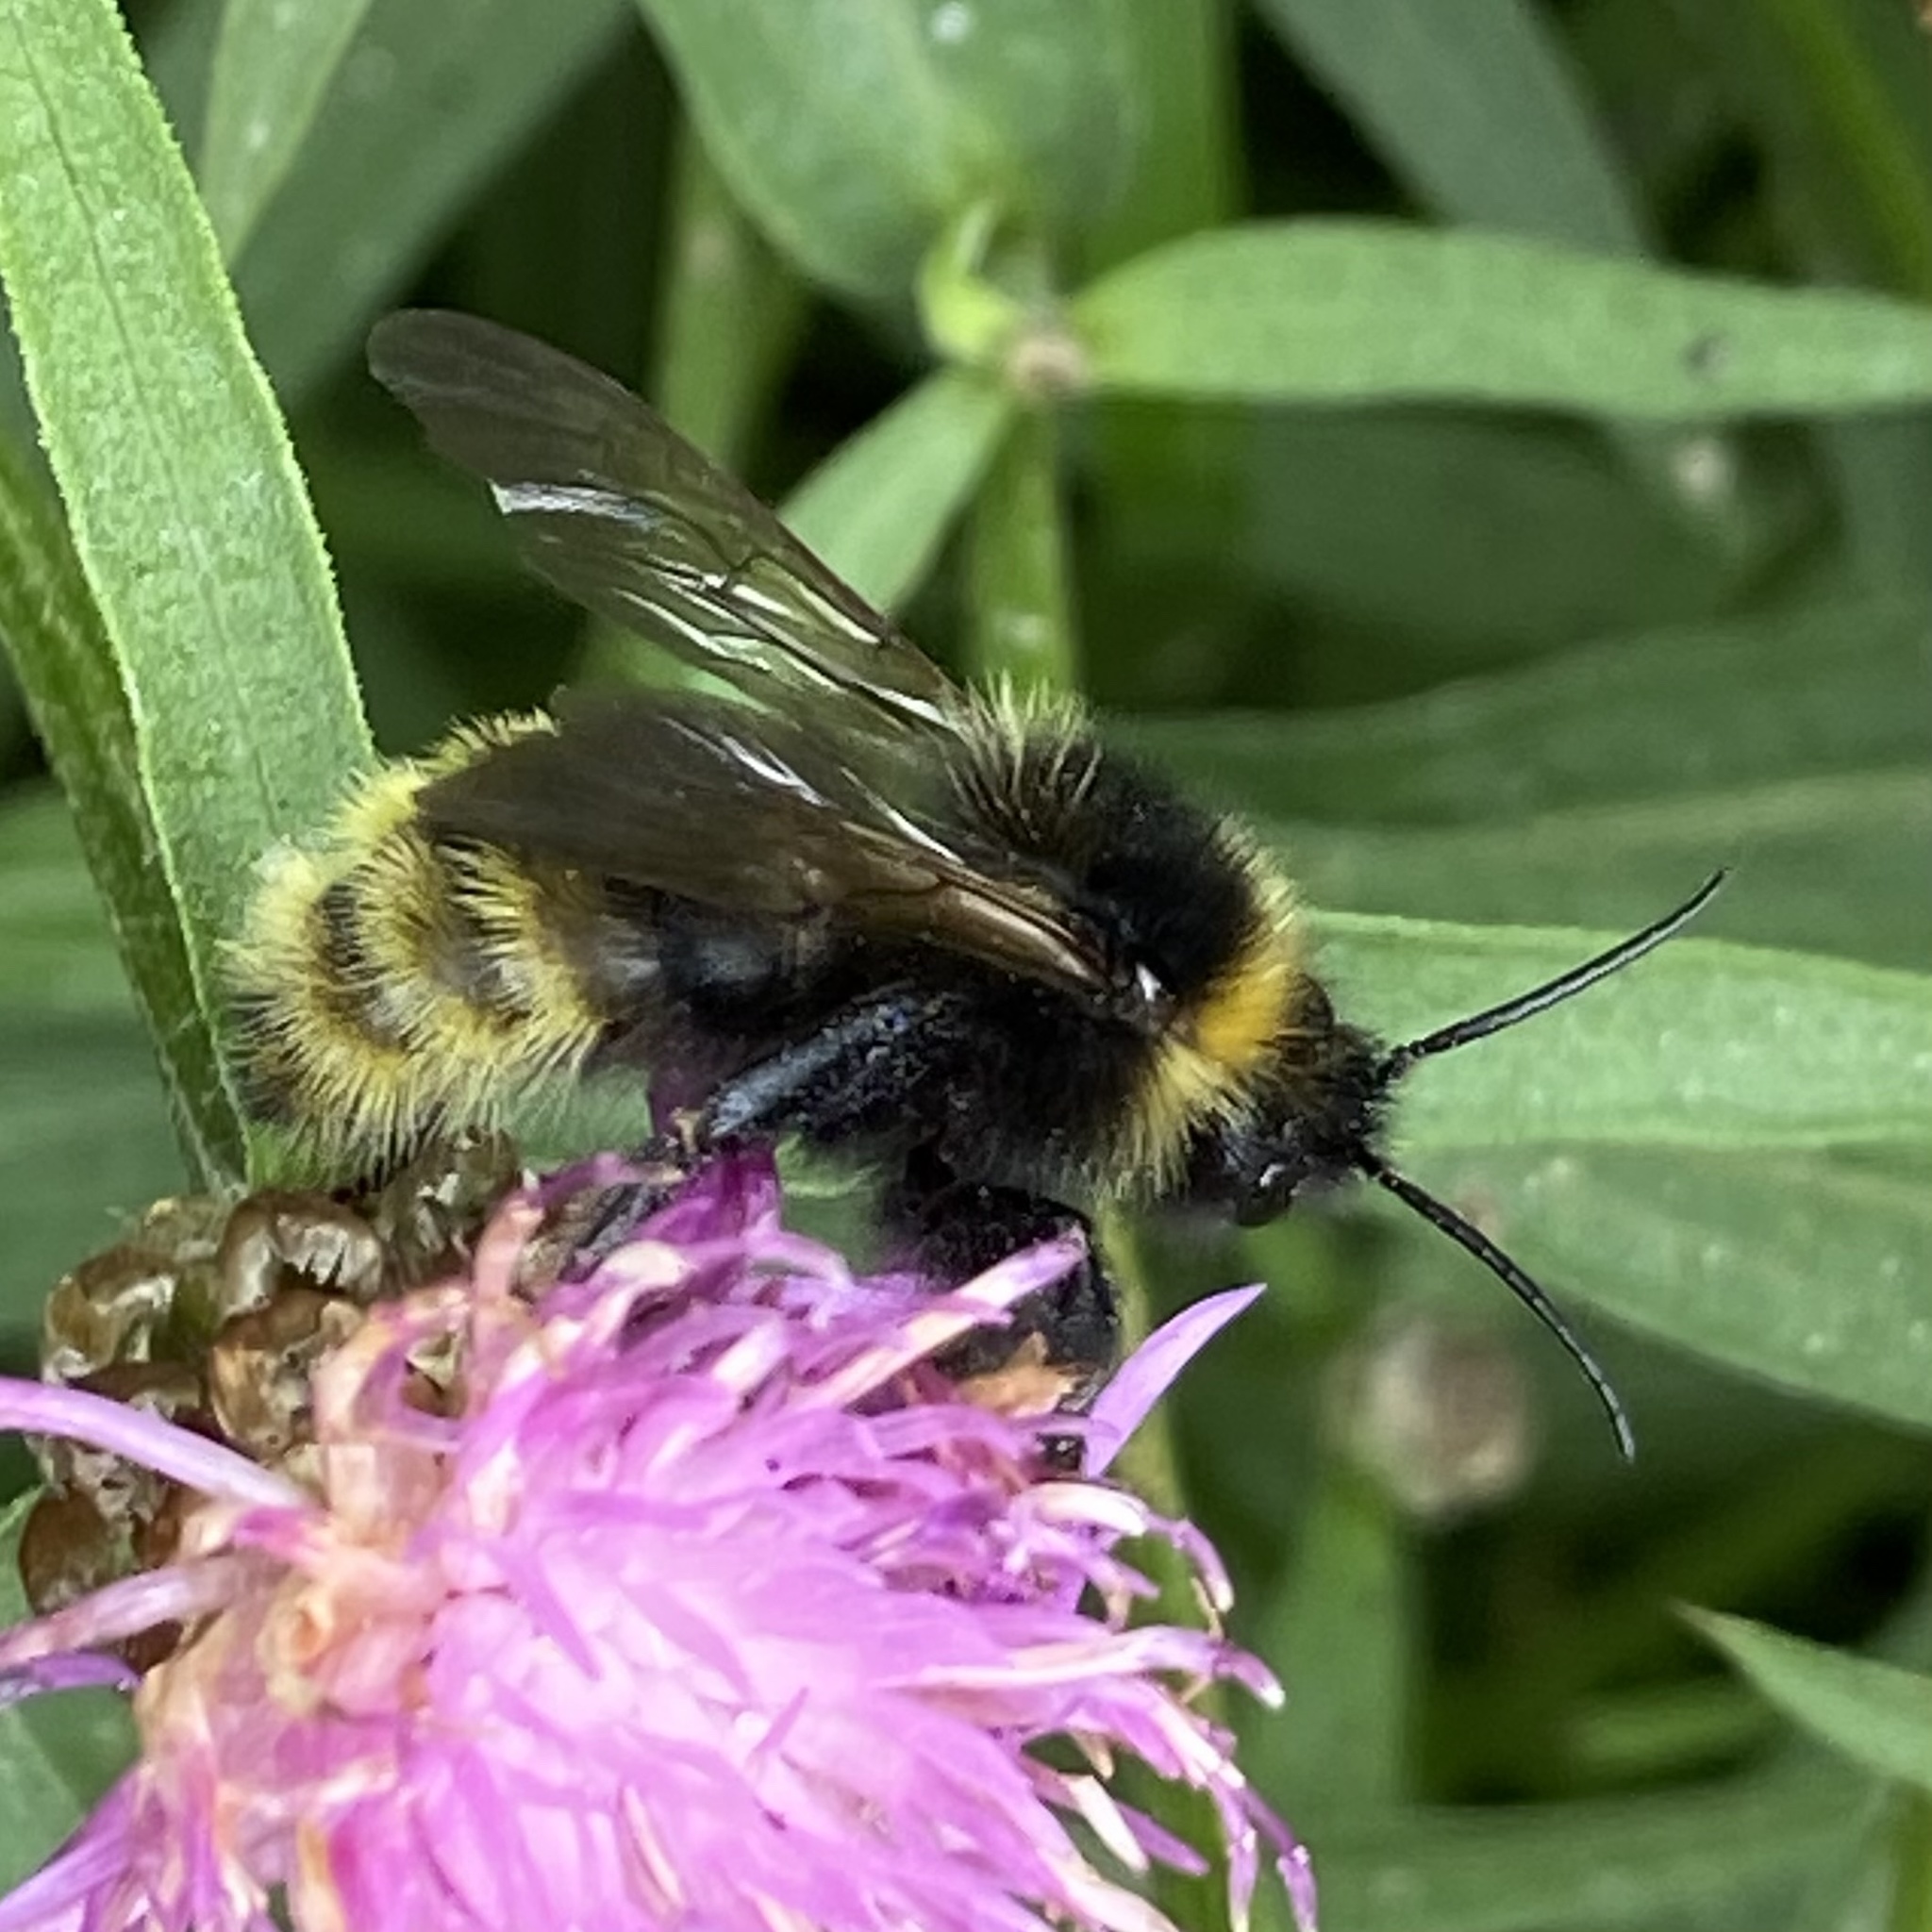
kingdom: Animalia
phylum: Arthropoda
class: Insecta
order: Hymenoptera
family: Apidae
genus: Bombus
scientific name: Bombus campestris
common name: Field cuckoo-bee
